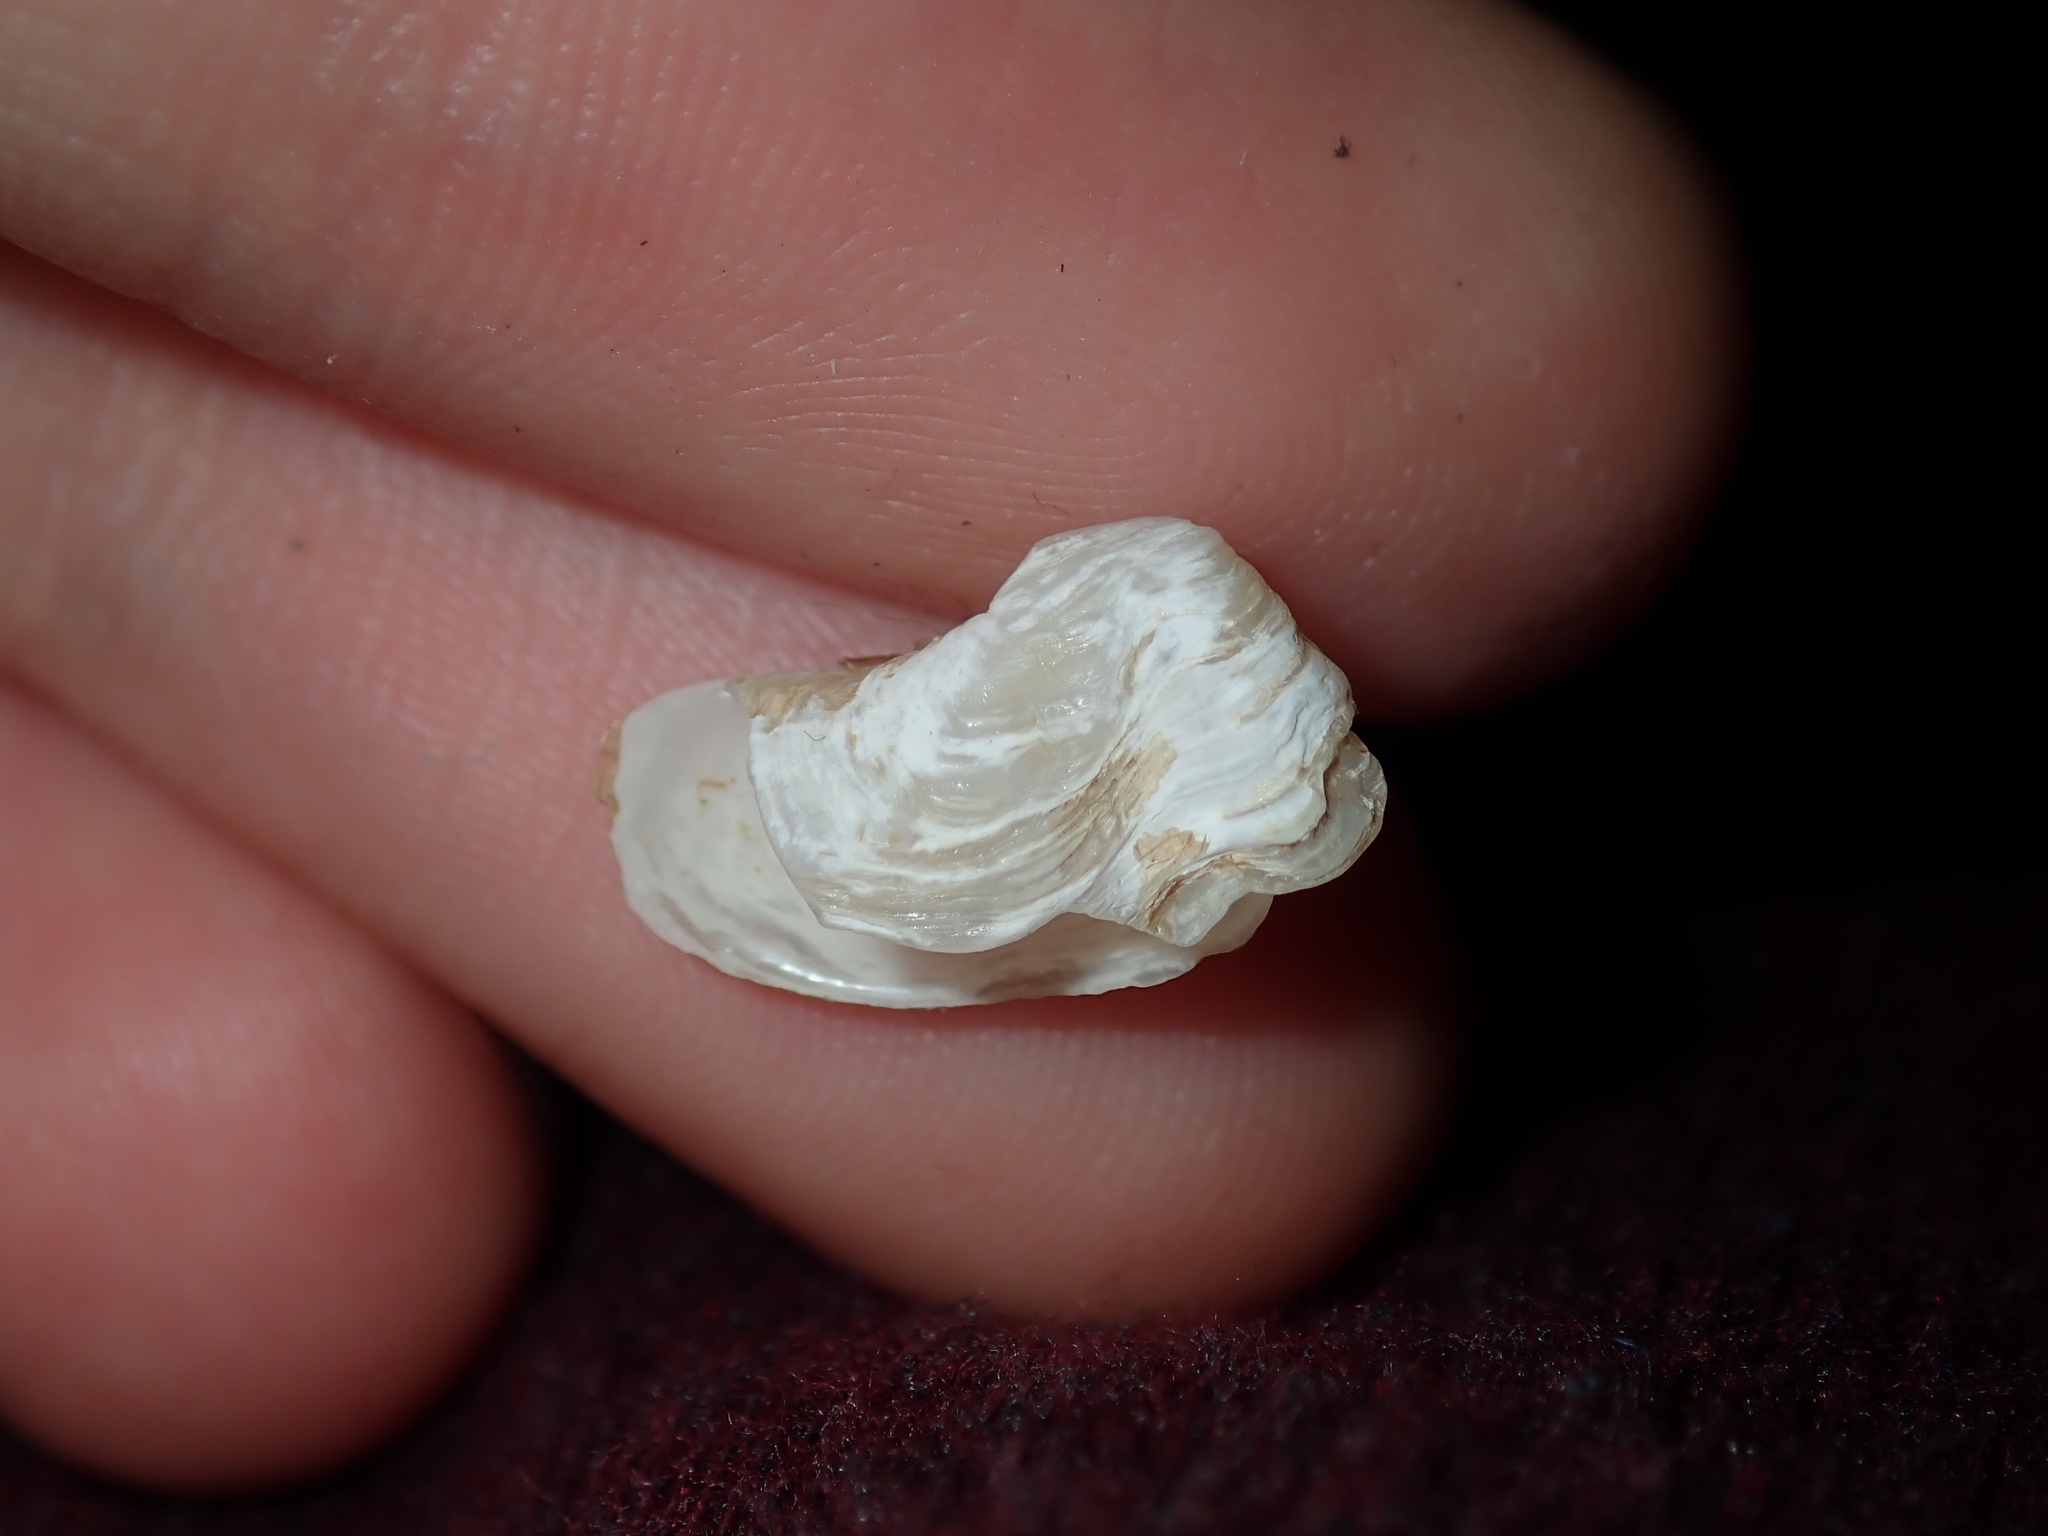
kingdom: Animalia
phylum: Mollusca
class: Bivalvia
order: Adapedonta
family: Hiatellidae
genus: Hiatella
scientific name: Hiatella australis
